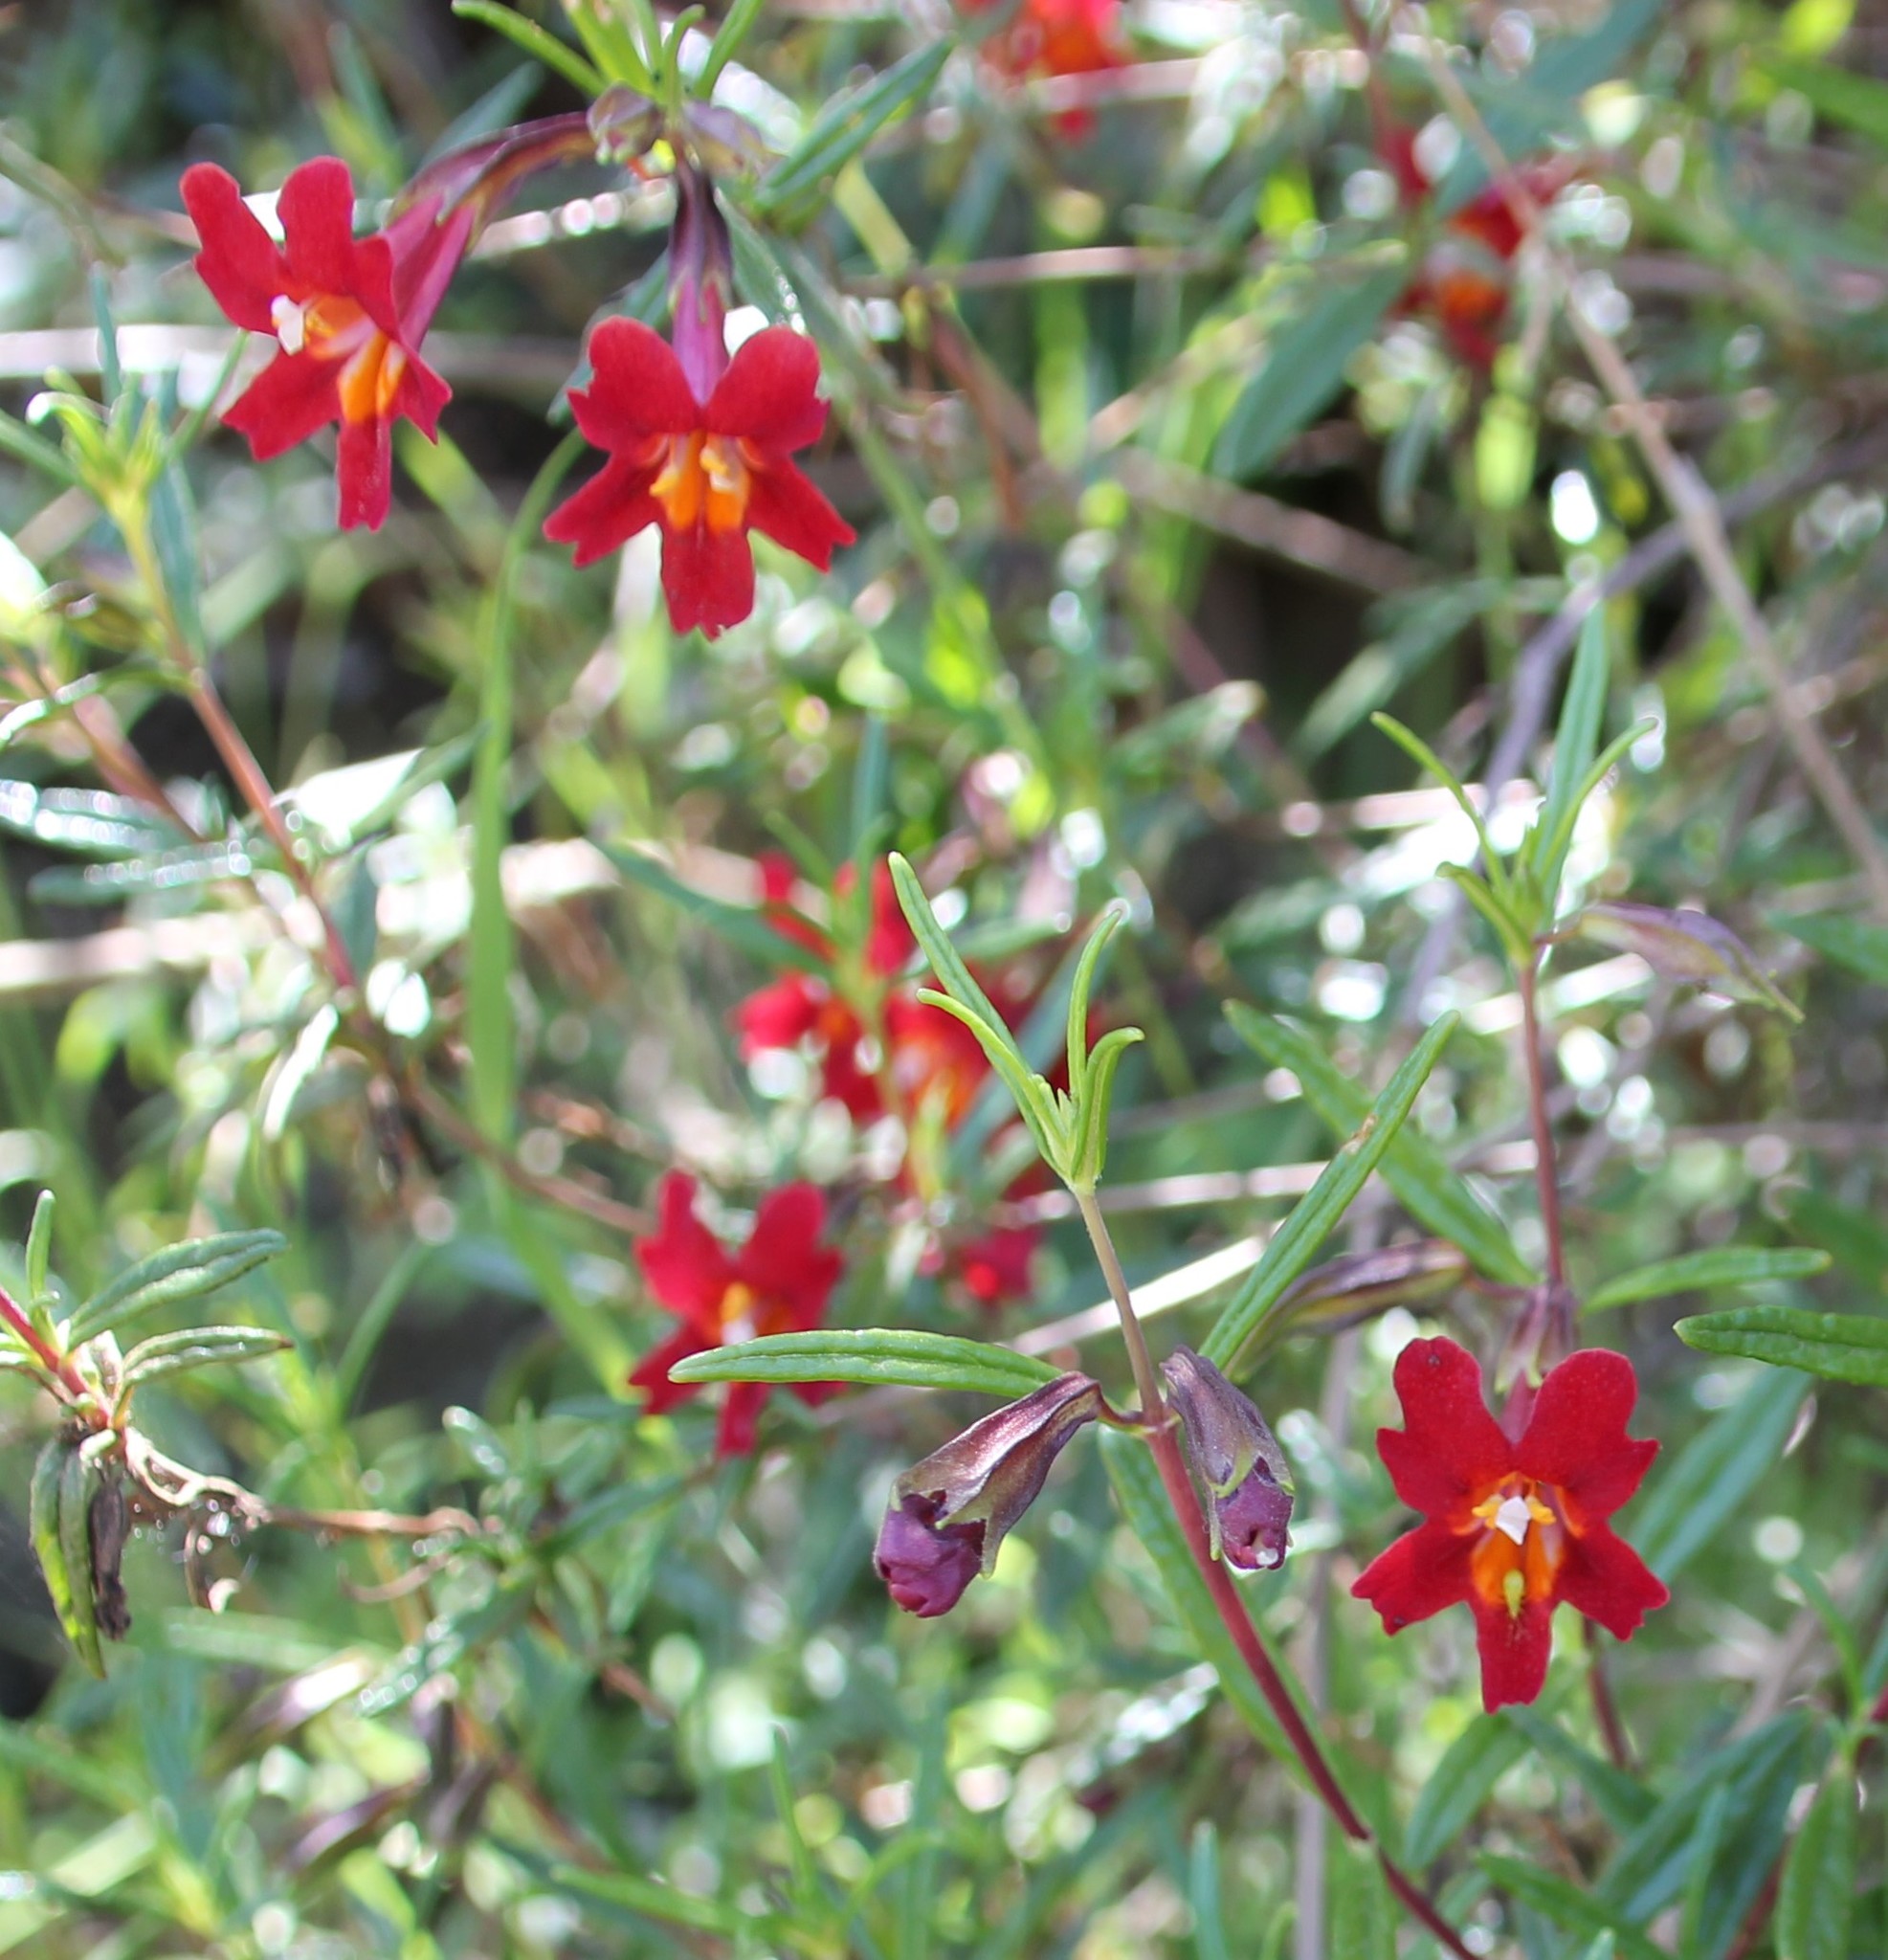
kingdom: Plantae
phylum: Tracheophyta
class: Magnoliopsida
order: Lamiales
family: Phrymaceae
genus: Diplacus
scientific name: Diplacus puniceus
